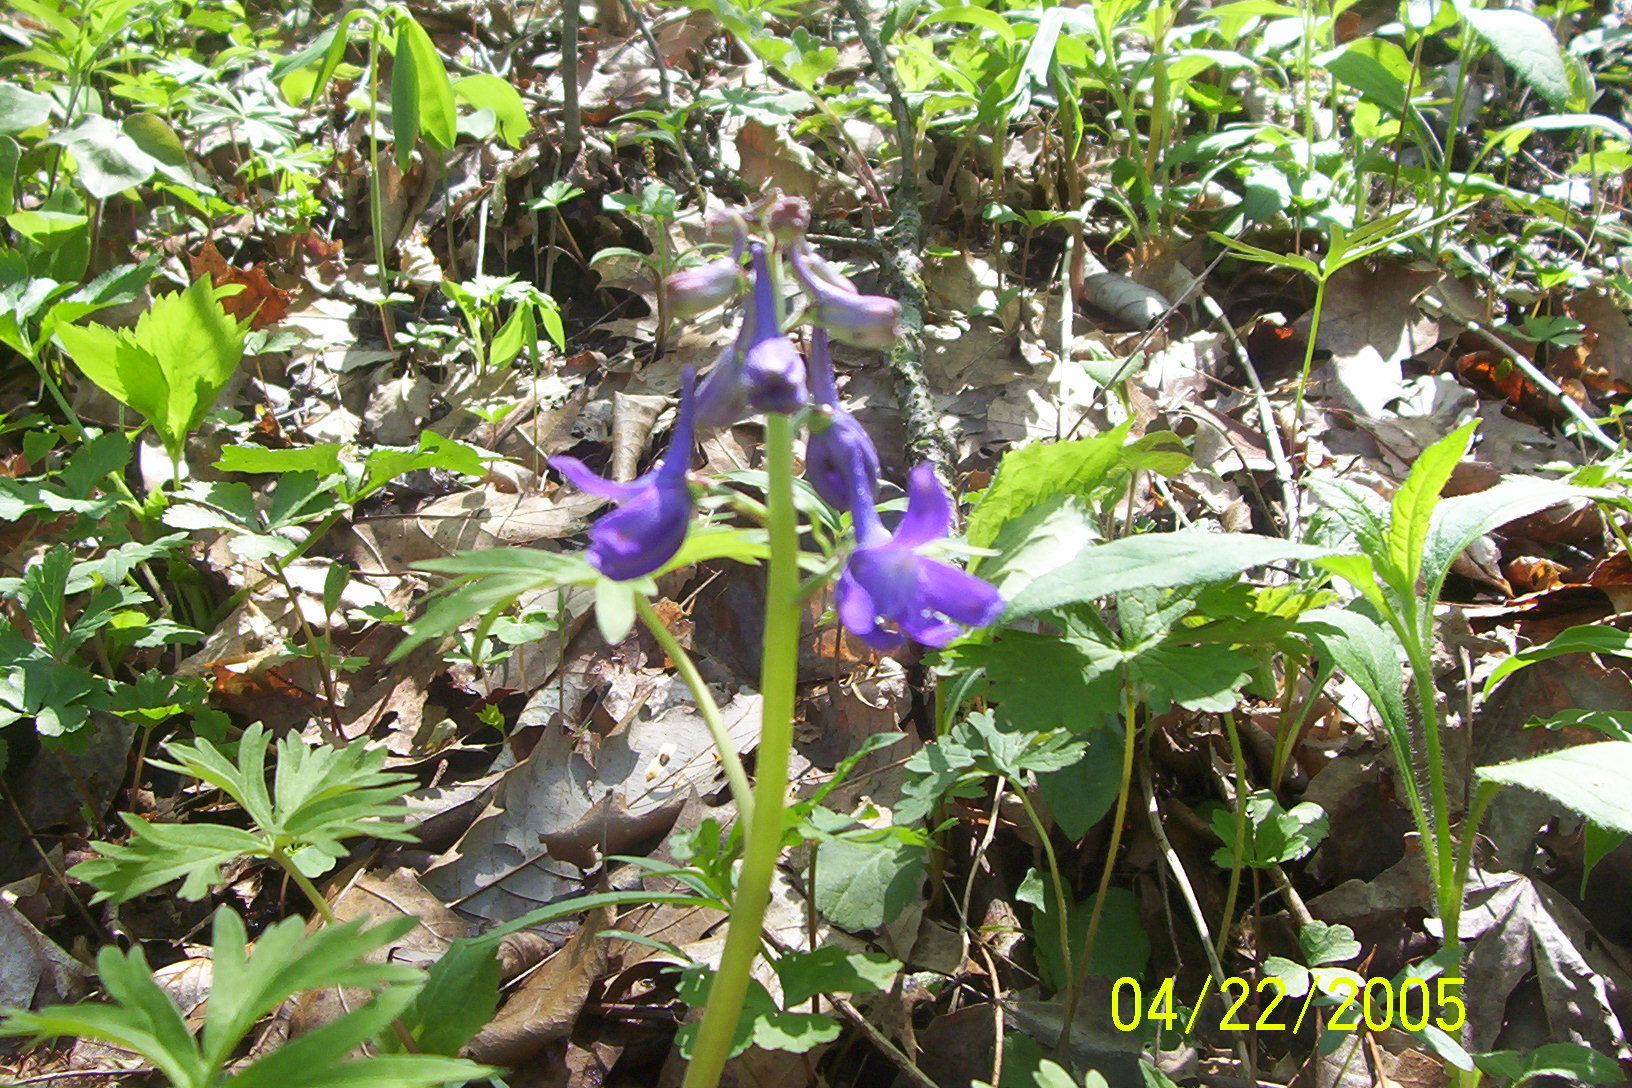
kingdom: Plantae
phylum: Tracheophyta
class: Magnoliopsida
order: Ranunculales
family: Ranunculaceae
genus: Delphinium
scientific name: Delphinium tricorne
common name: Dwarf larkspur
